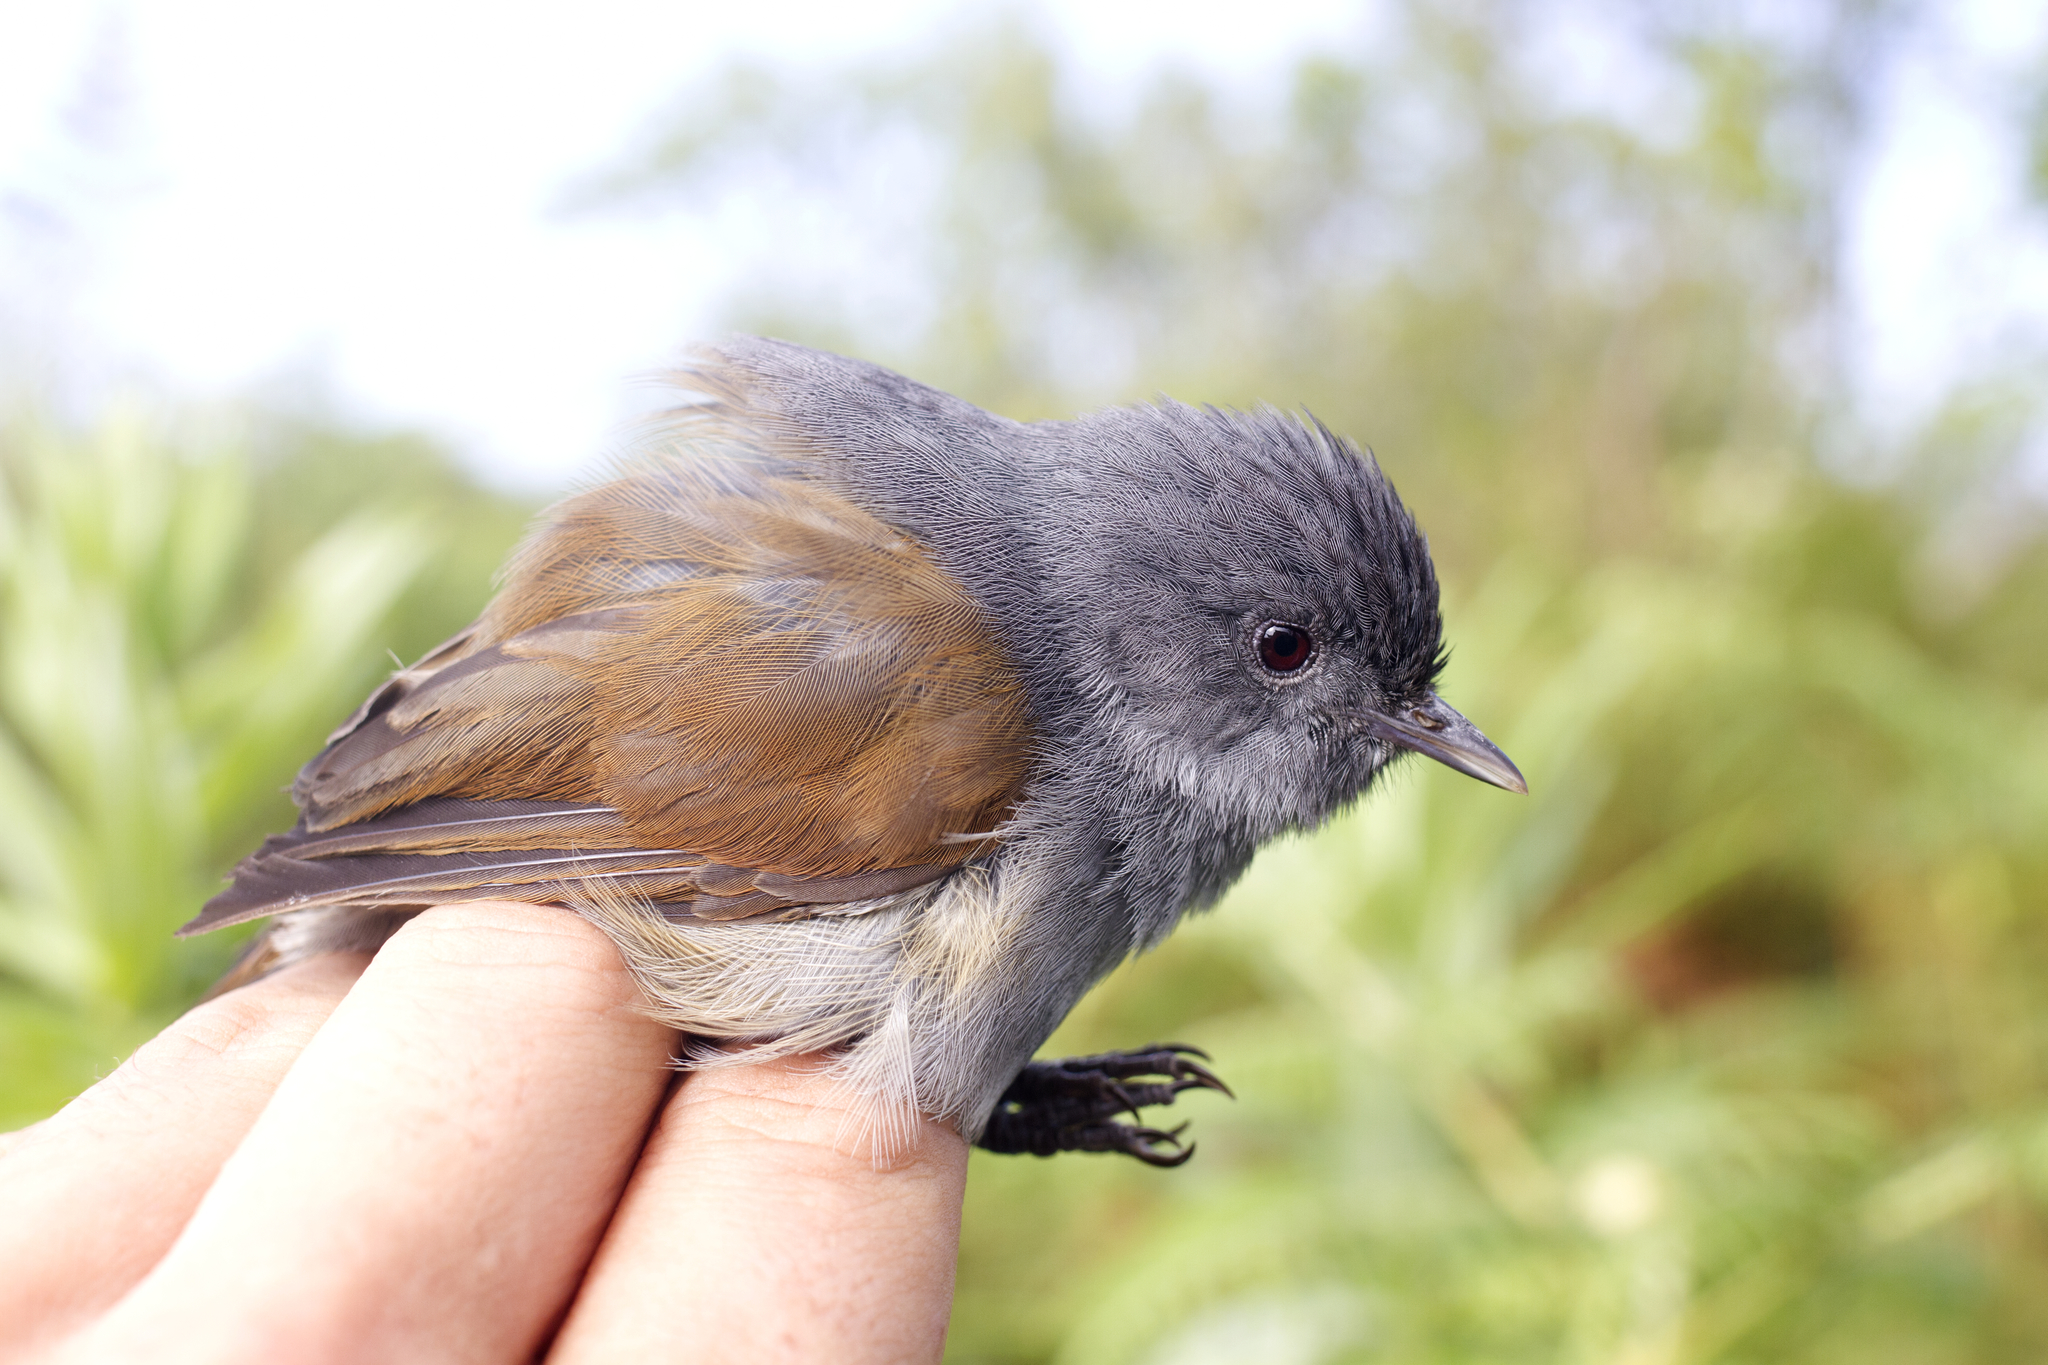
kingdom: Animalia
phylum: Chordata
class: Aves
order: Passeriformes
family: Sylviidae
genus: Pseudoalcippe
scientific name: Pseudoalcippe abyssinica
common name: African hill babbler
